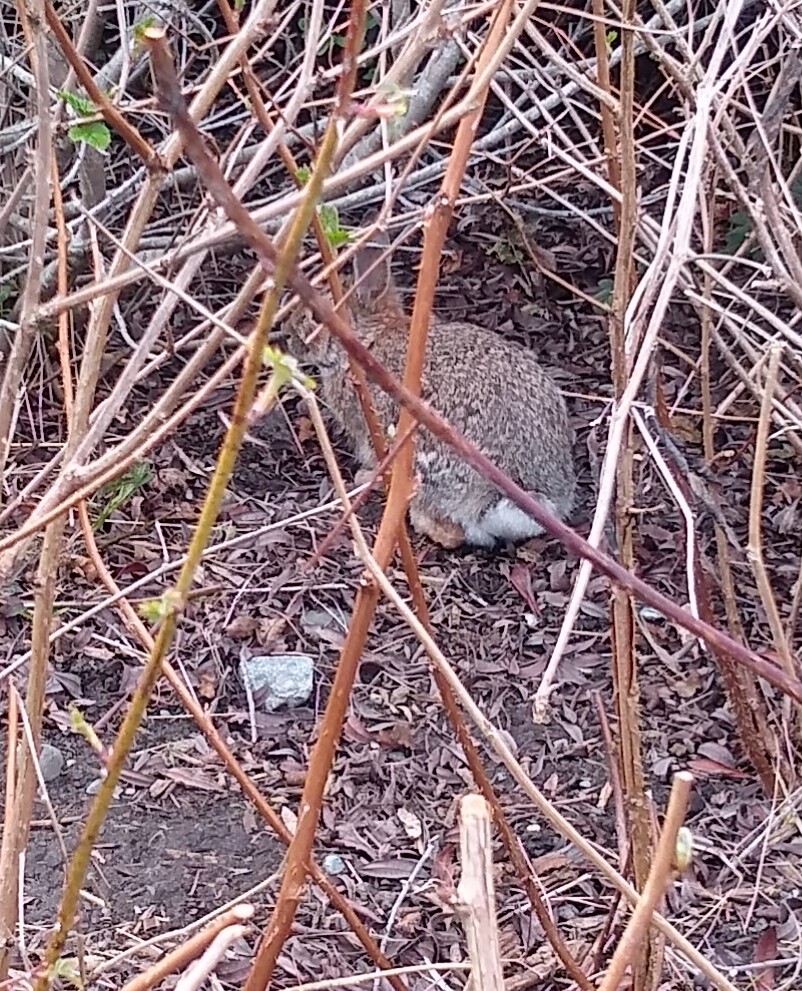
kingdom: Animalia
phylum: Chordata
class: Mammalia
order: Lagomorpha
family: Leporidae
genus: Sylvilagus
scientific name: Sylvilagus floridanus
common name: Eastern cottontail
